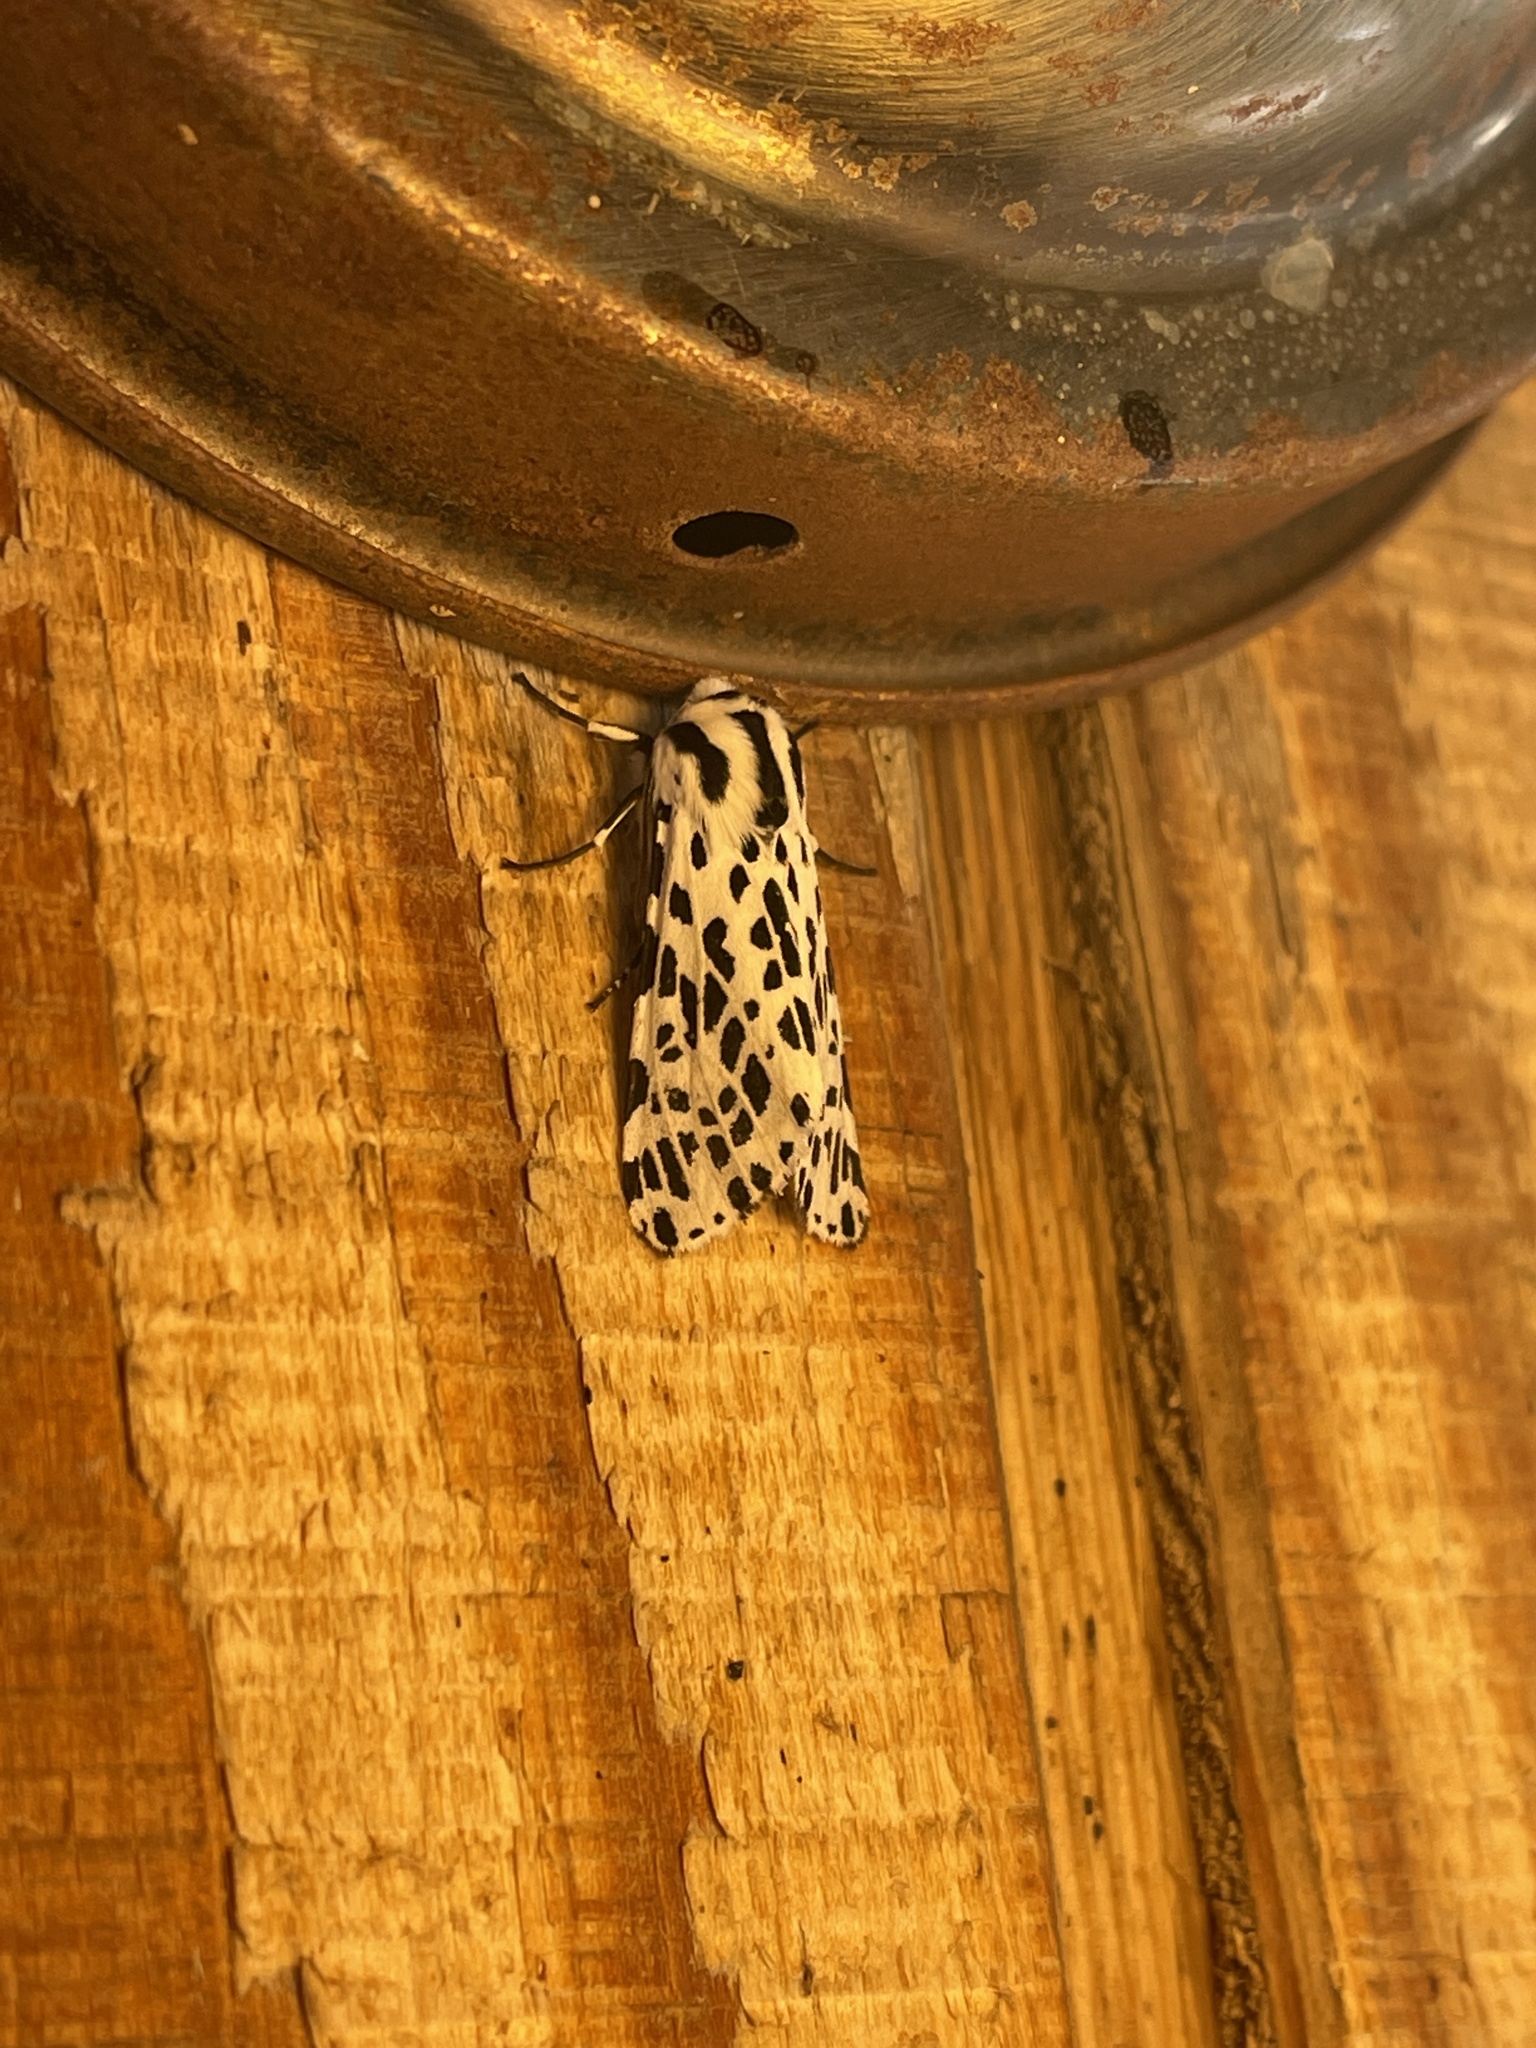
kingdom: Animalia
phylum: Arthropoda
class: Insecta
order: Lepidoptera
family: Erebidae
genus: Hypercompe
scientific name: Hypercompe permaculata
